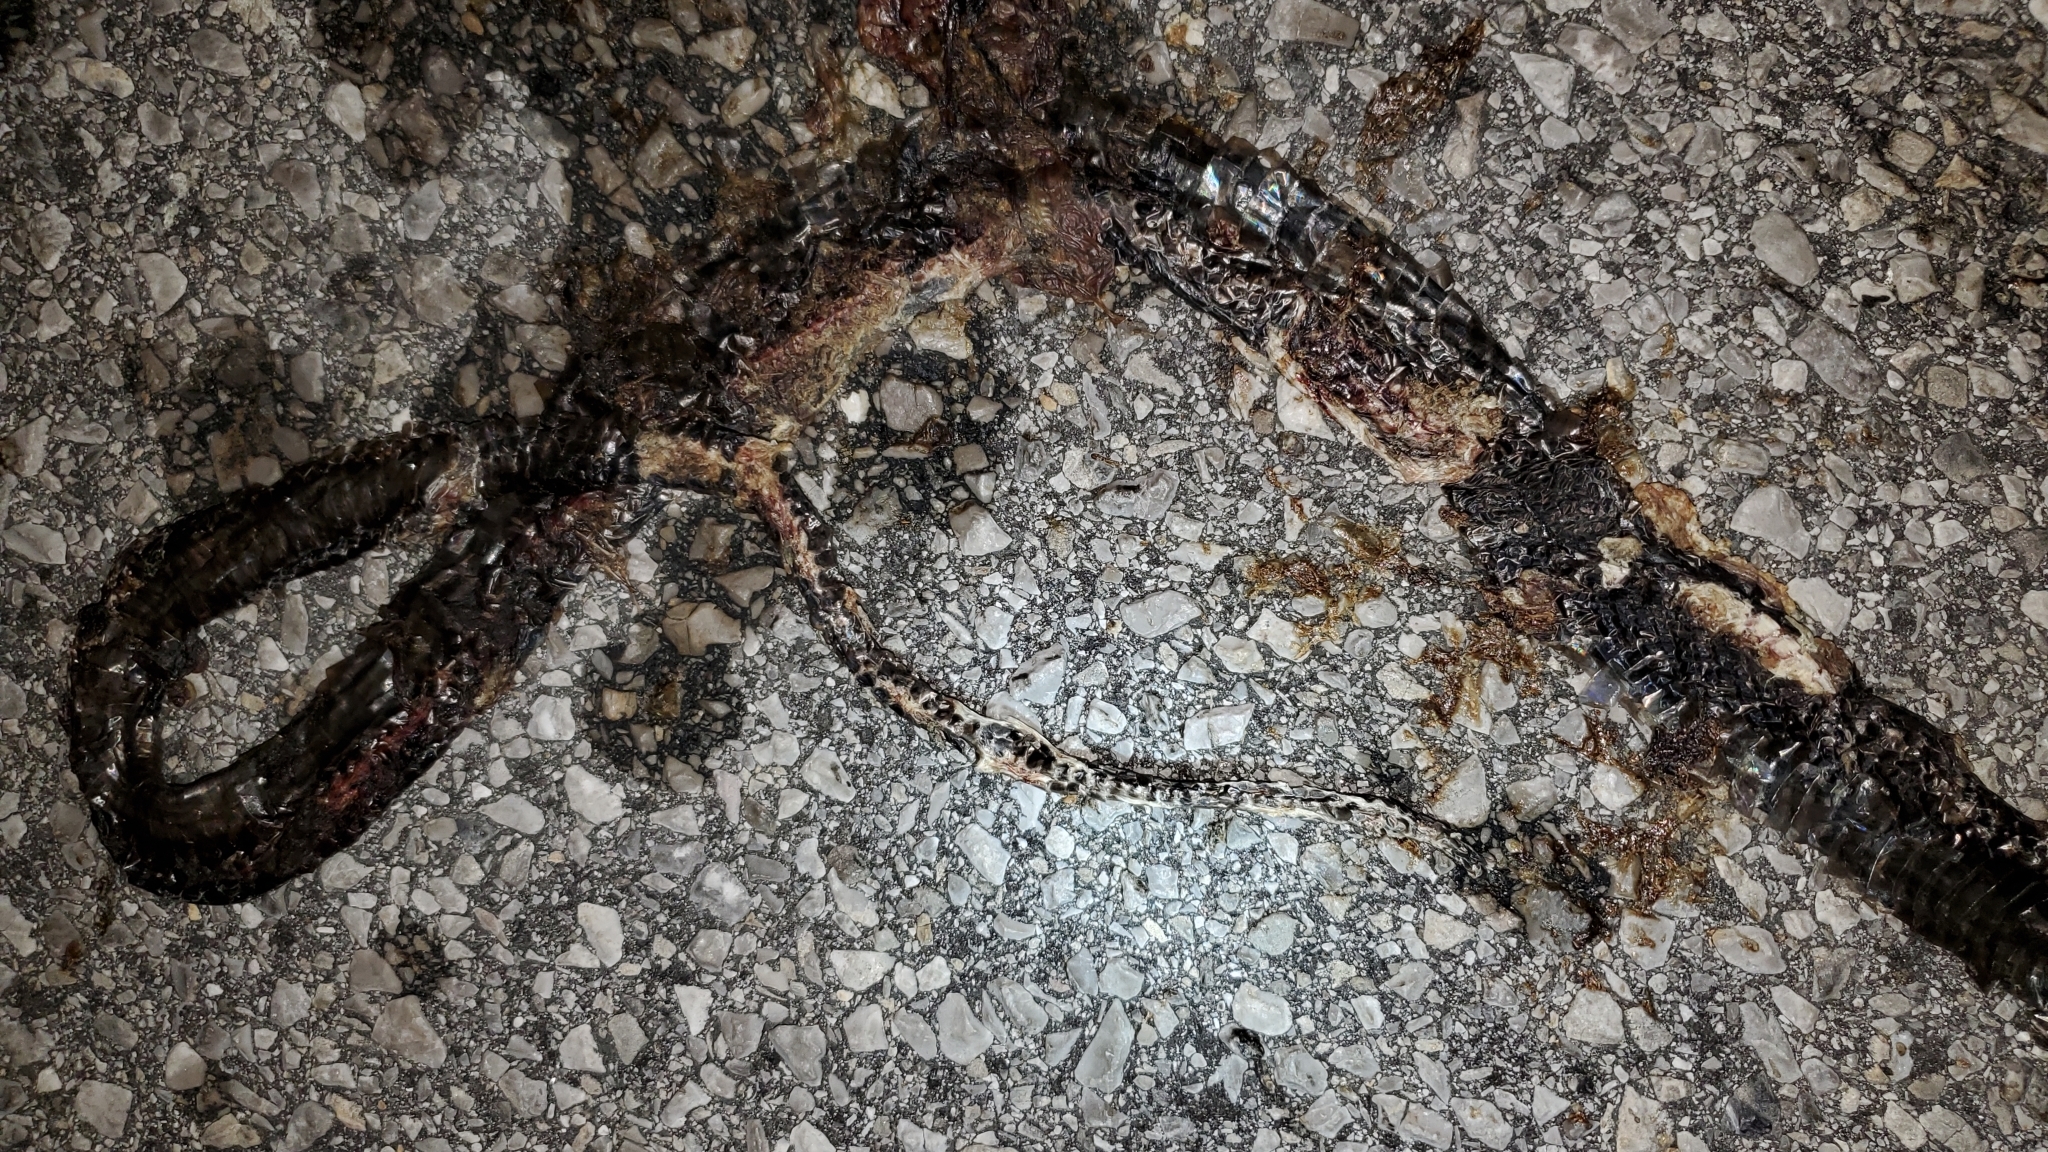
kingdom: Animalia
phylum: Chordata
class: Squamata
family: Colubridae
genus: Masticophis
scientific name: Masticophis flagellum
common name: Coachwhip
